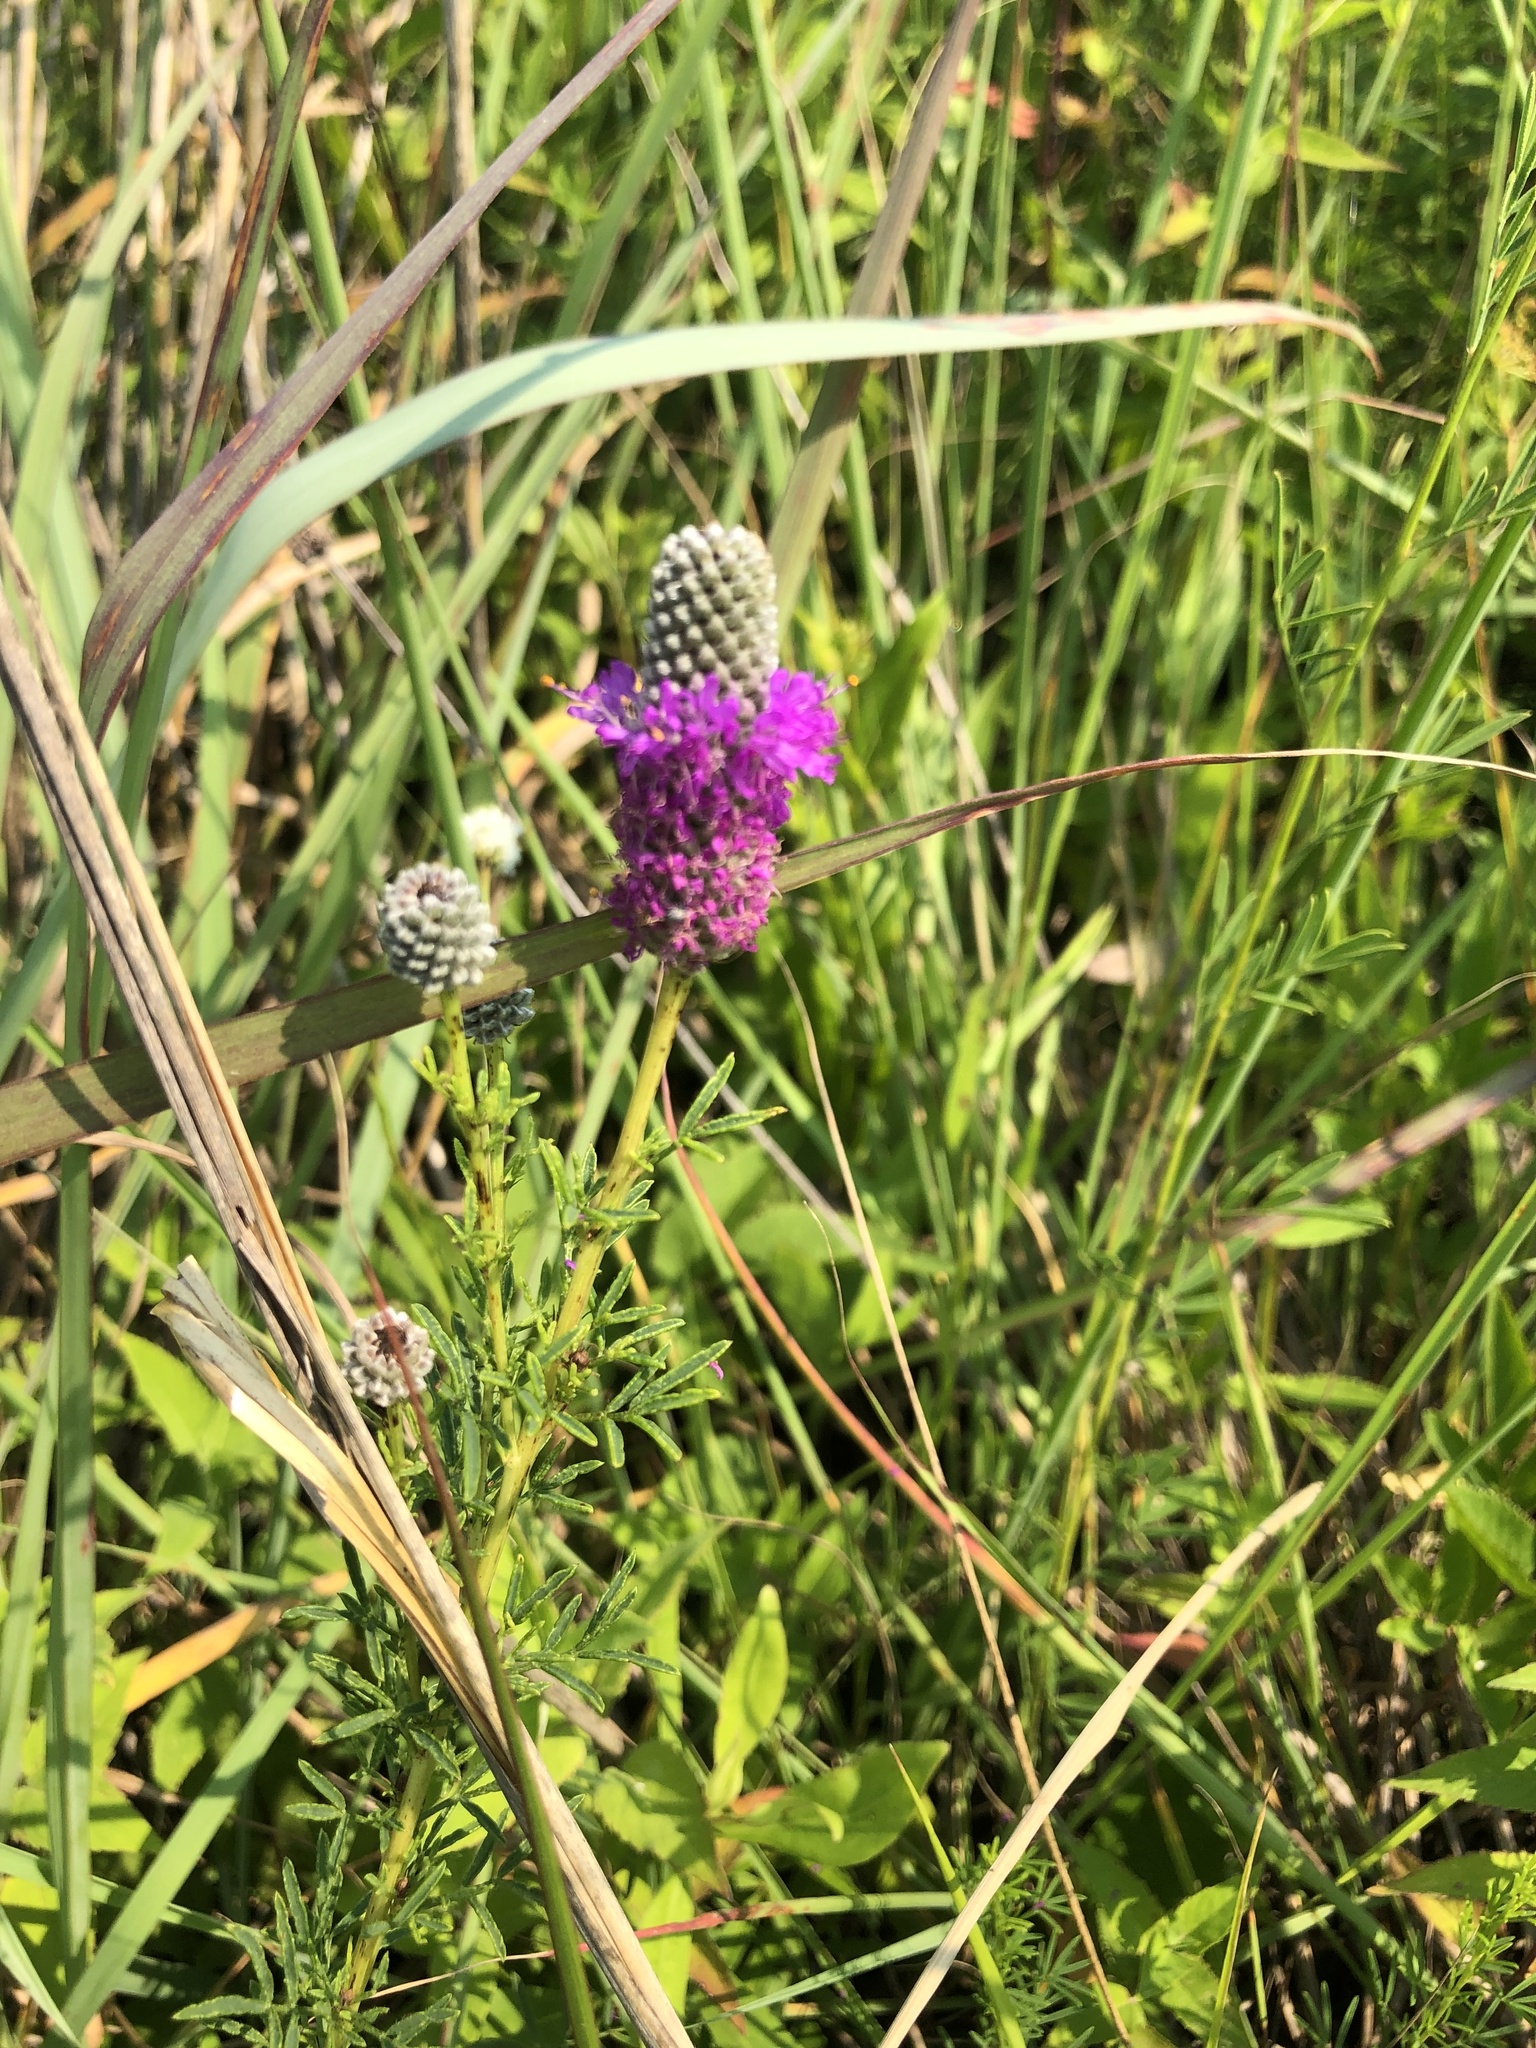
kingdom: Plantae
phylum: Tracheophyta
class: Magnoliopsida
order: Fabales
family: Fabaceae
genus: Dalea
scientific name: Dalea purpurea
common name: Purple prairie-clover
